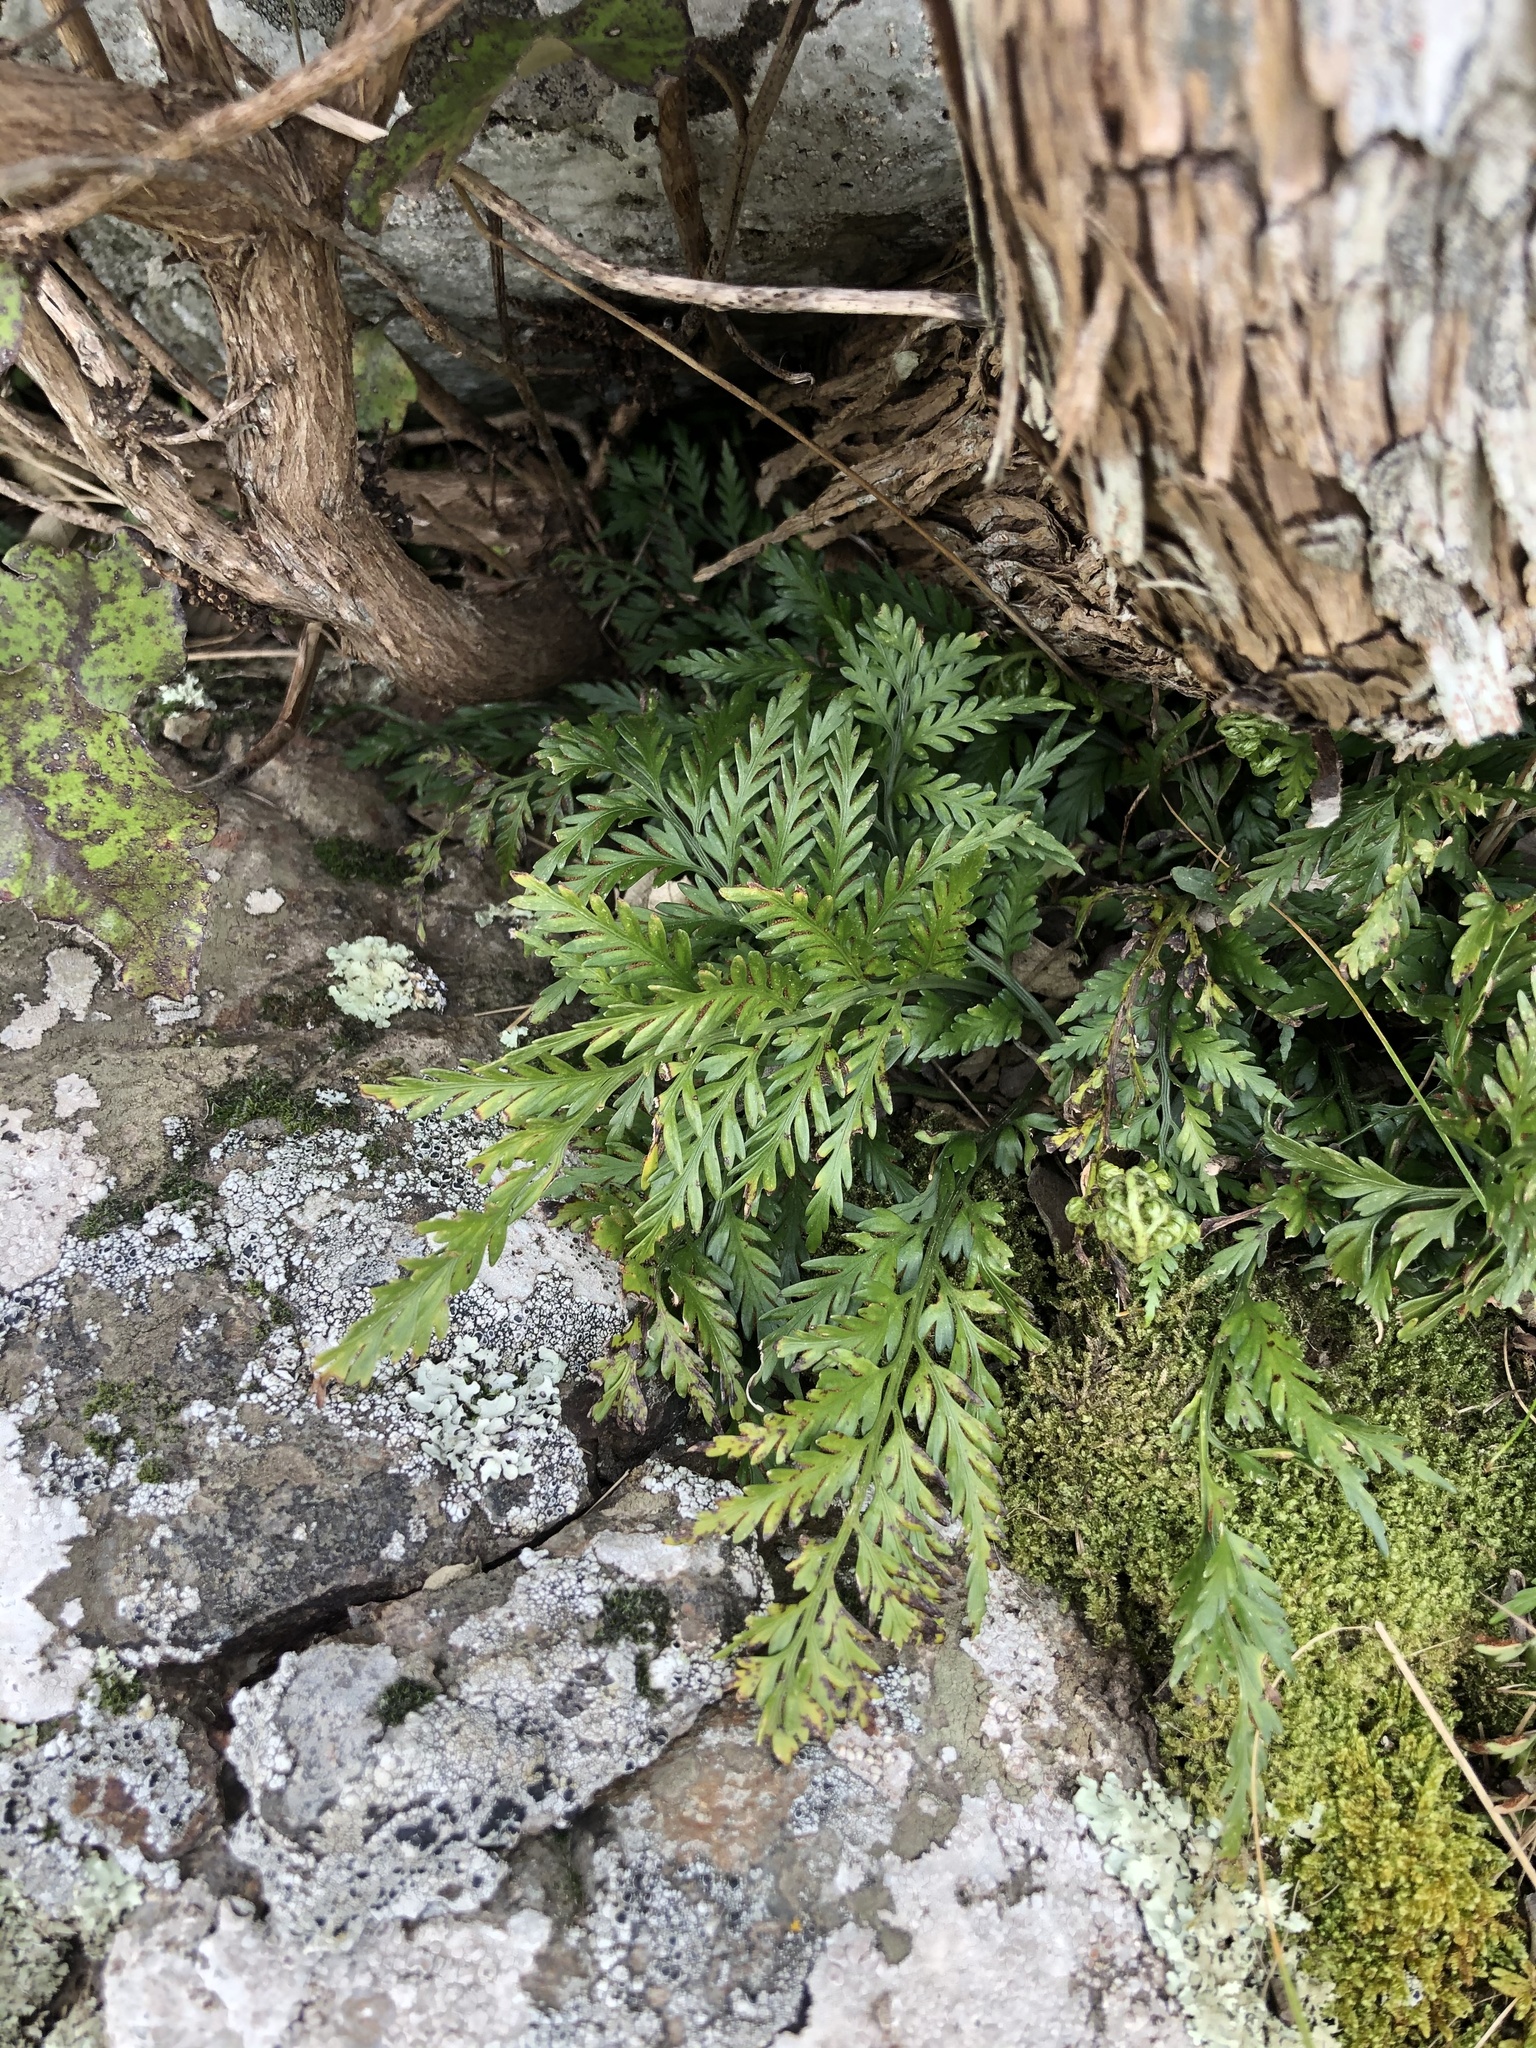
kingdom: Plantae
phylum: Tracheophyta
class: Polypodiopsida
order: Polypodiales
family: Aspleniaceae
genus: Asplenium
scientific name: Asplenium flaccidum
